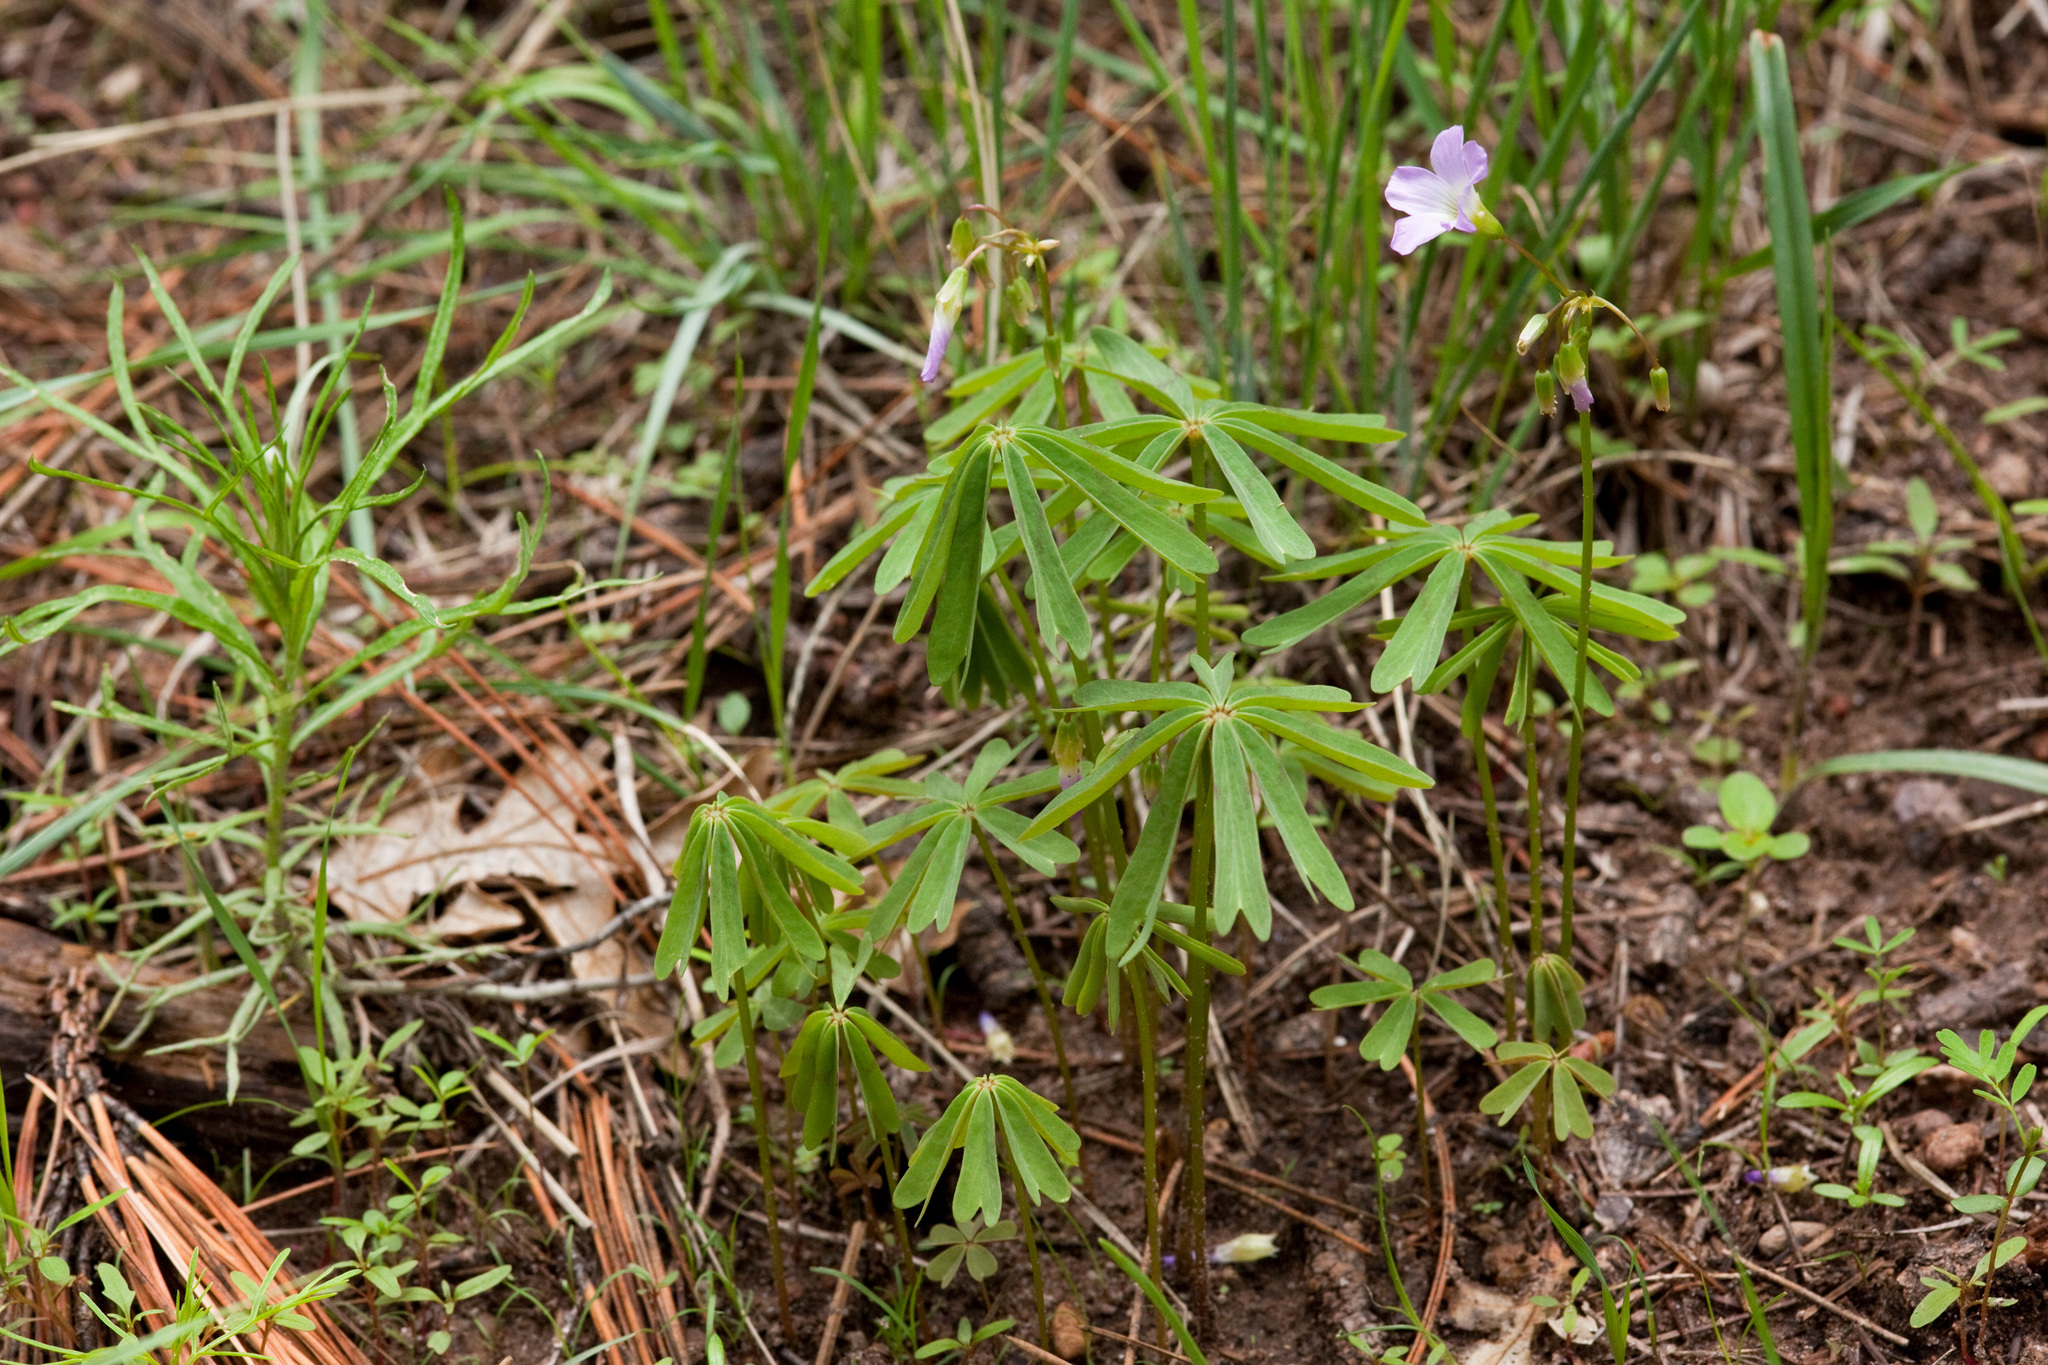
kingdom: Plantae
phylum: Tracheophyta
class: Magnoliopsida
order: Oxalidales
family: Oxalidaceae
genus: Oxalis
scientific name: Oxalis decaphylla
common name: Ten-leaved pink-sorrel
